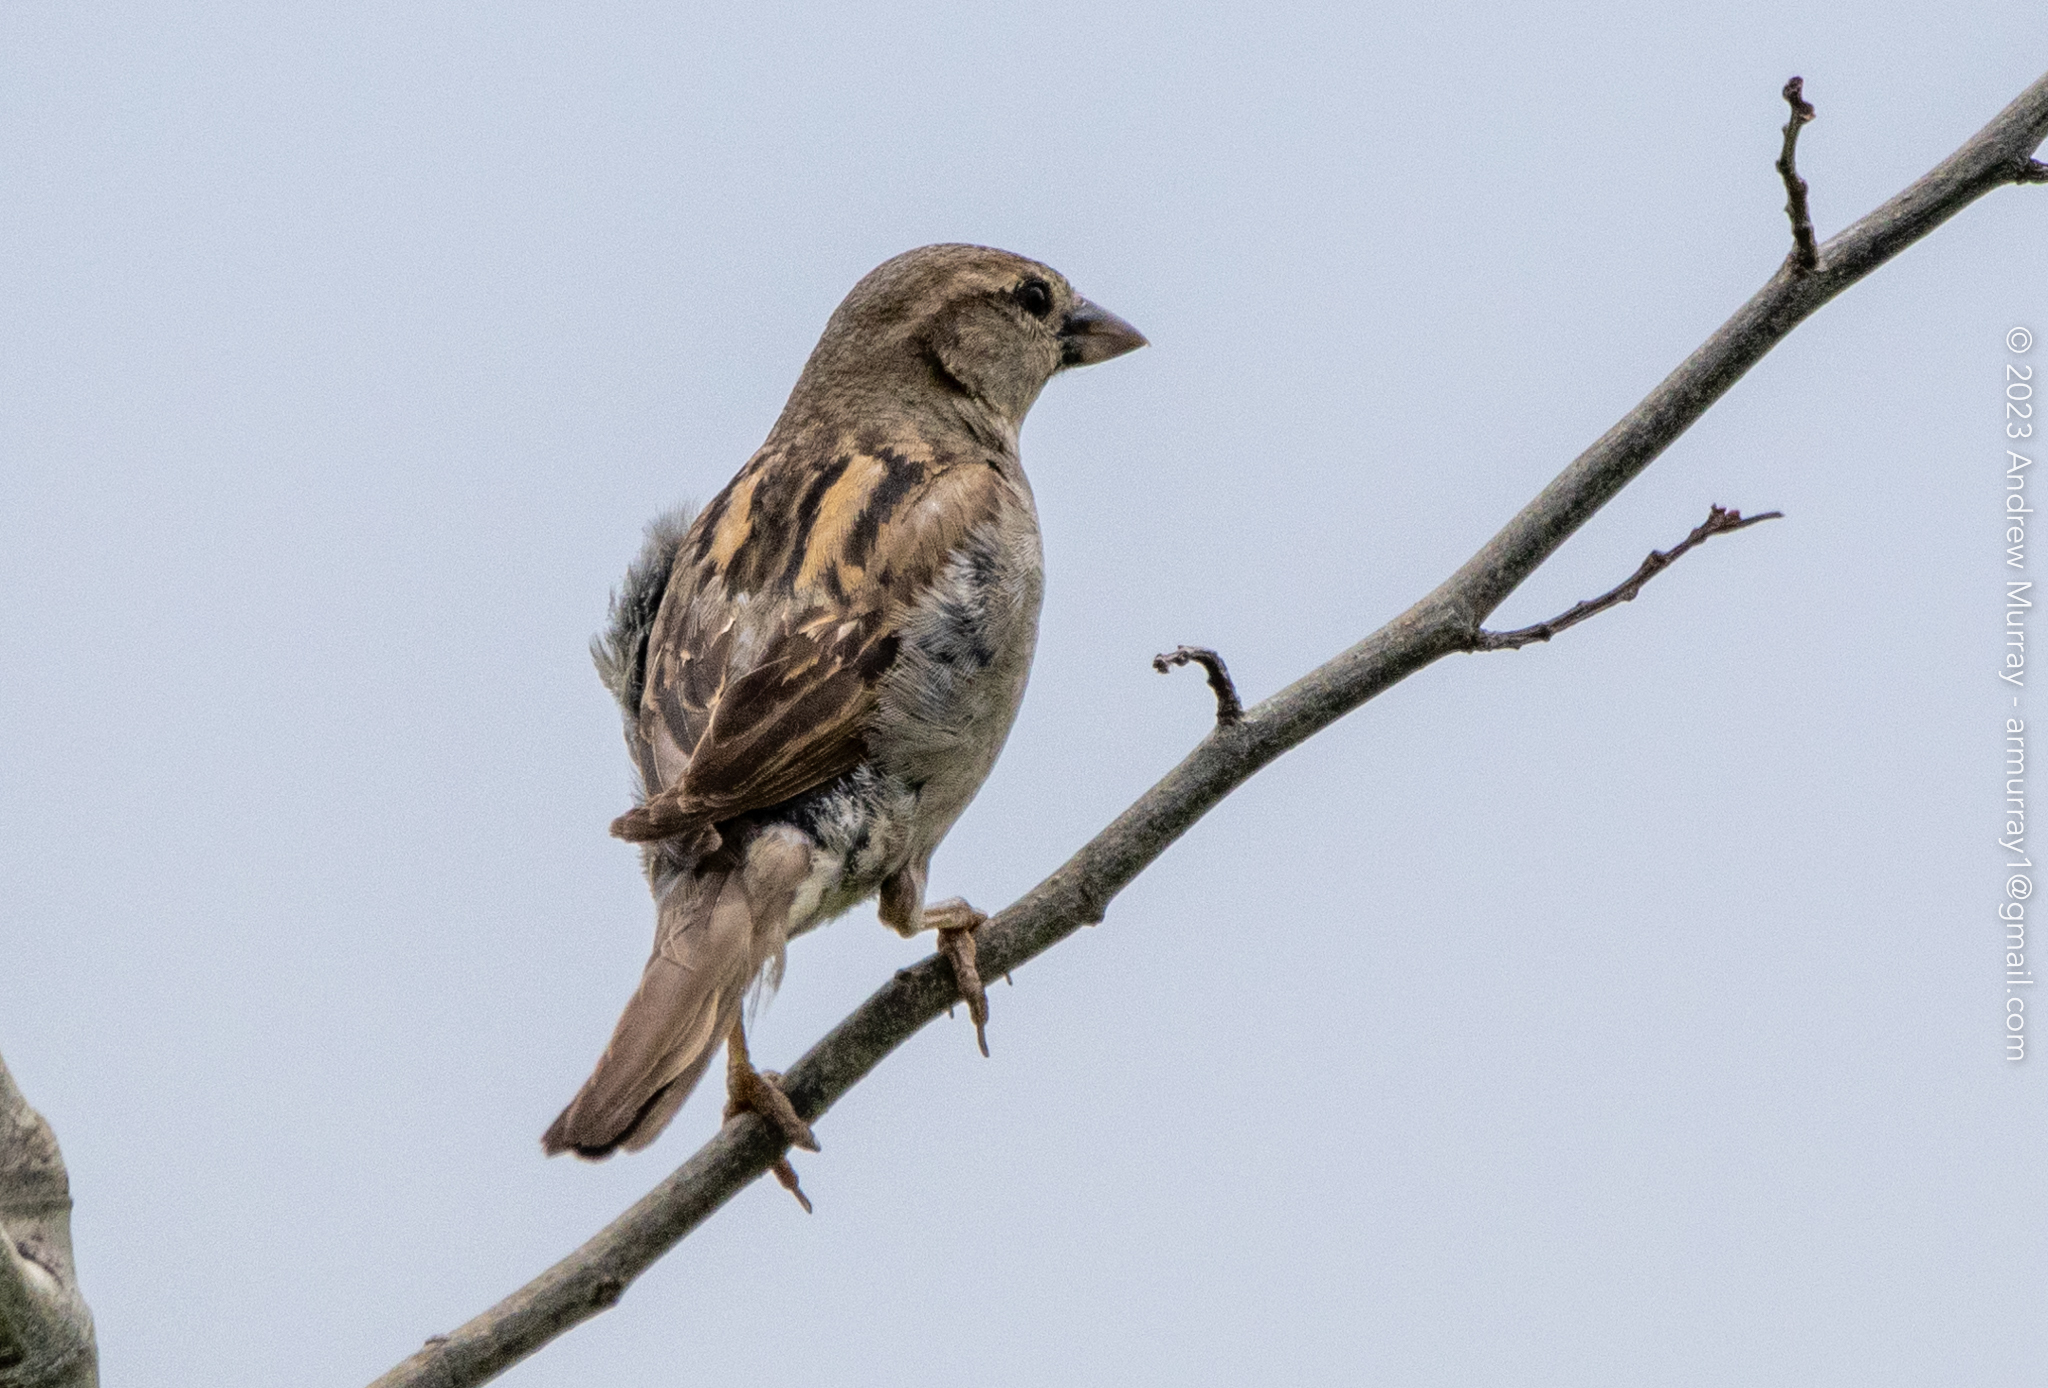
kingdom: Animalia
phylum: Chordata
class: Aves
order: Passeriformes
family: Passeridae
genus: Passer
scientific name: Passer domesticus
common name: House sparrow
